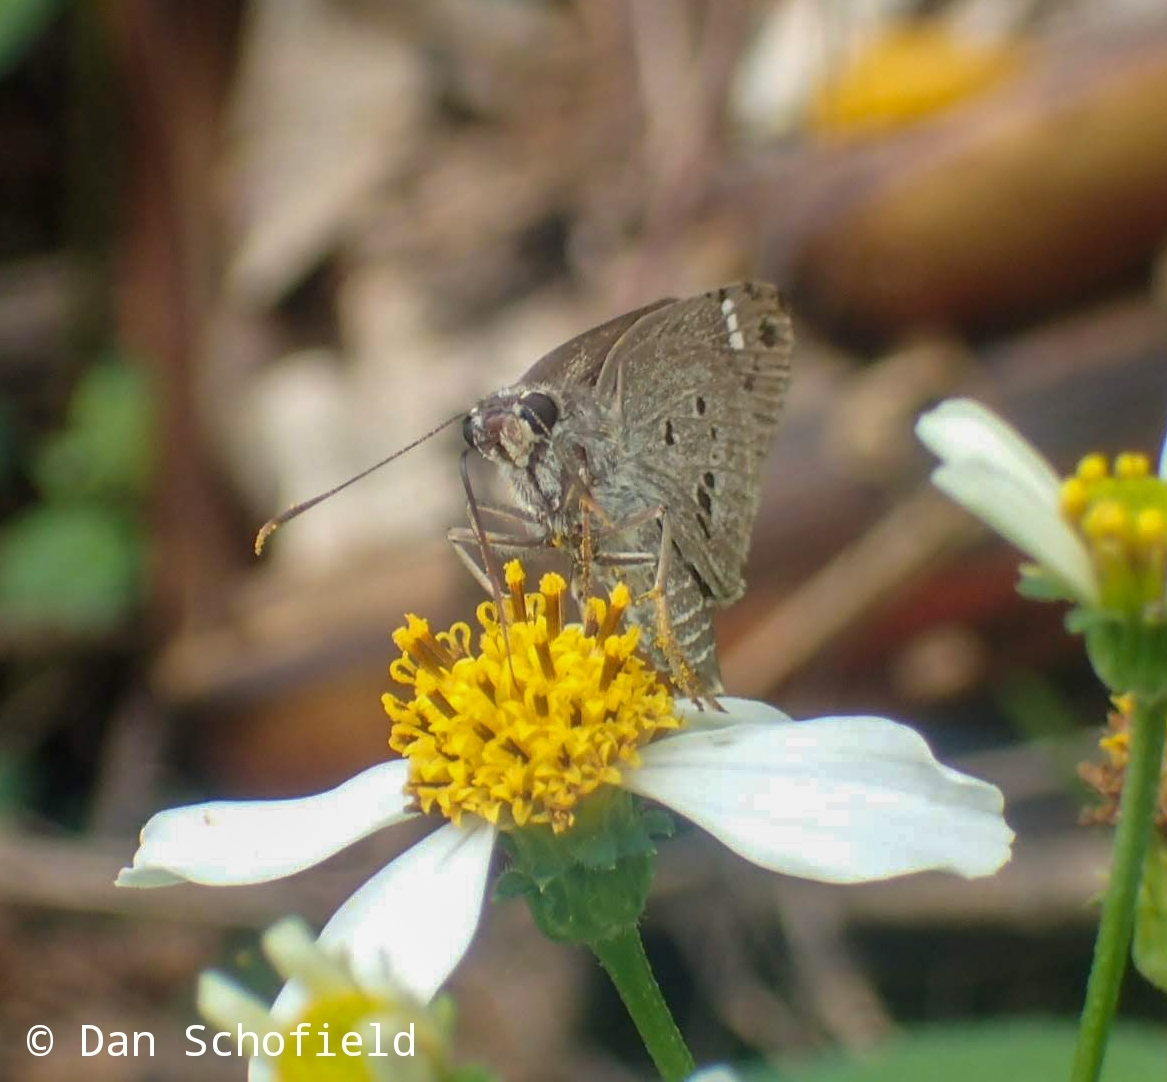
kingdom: Animalia
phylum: Arthropoda
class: Insecta
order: Lepidoptera
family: Hesperiidae
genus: Suastus
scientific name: Suastus gremius
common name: Indian palm bob
